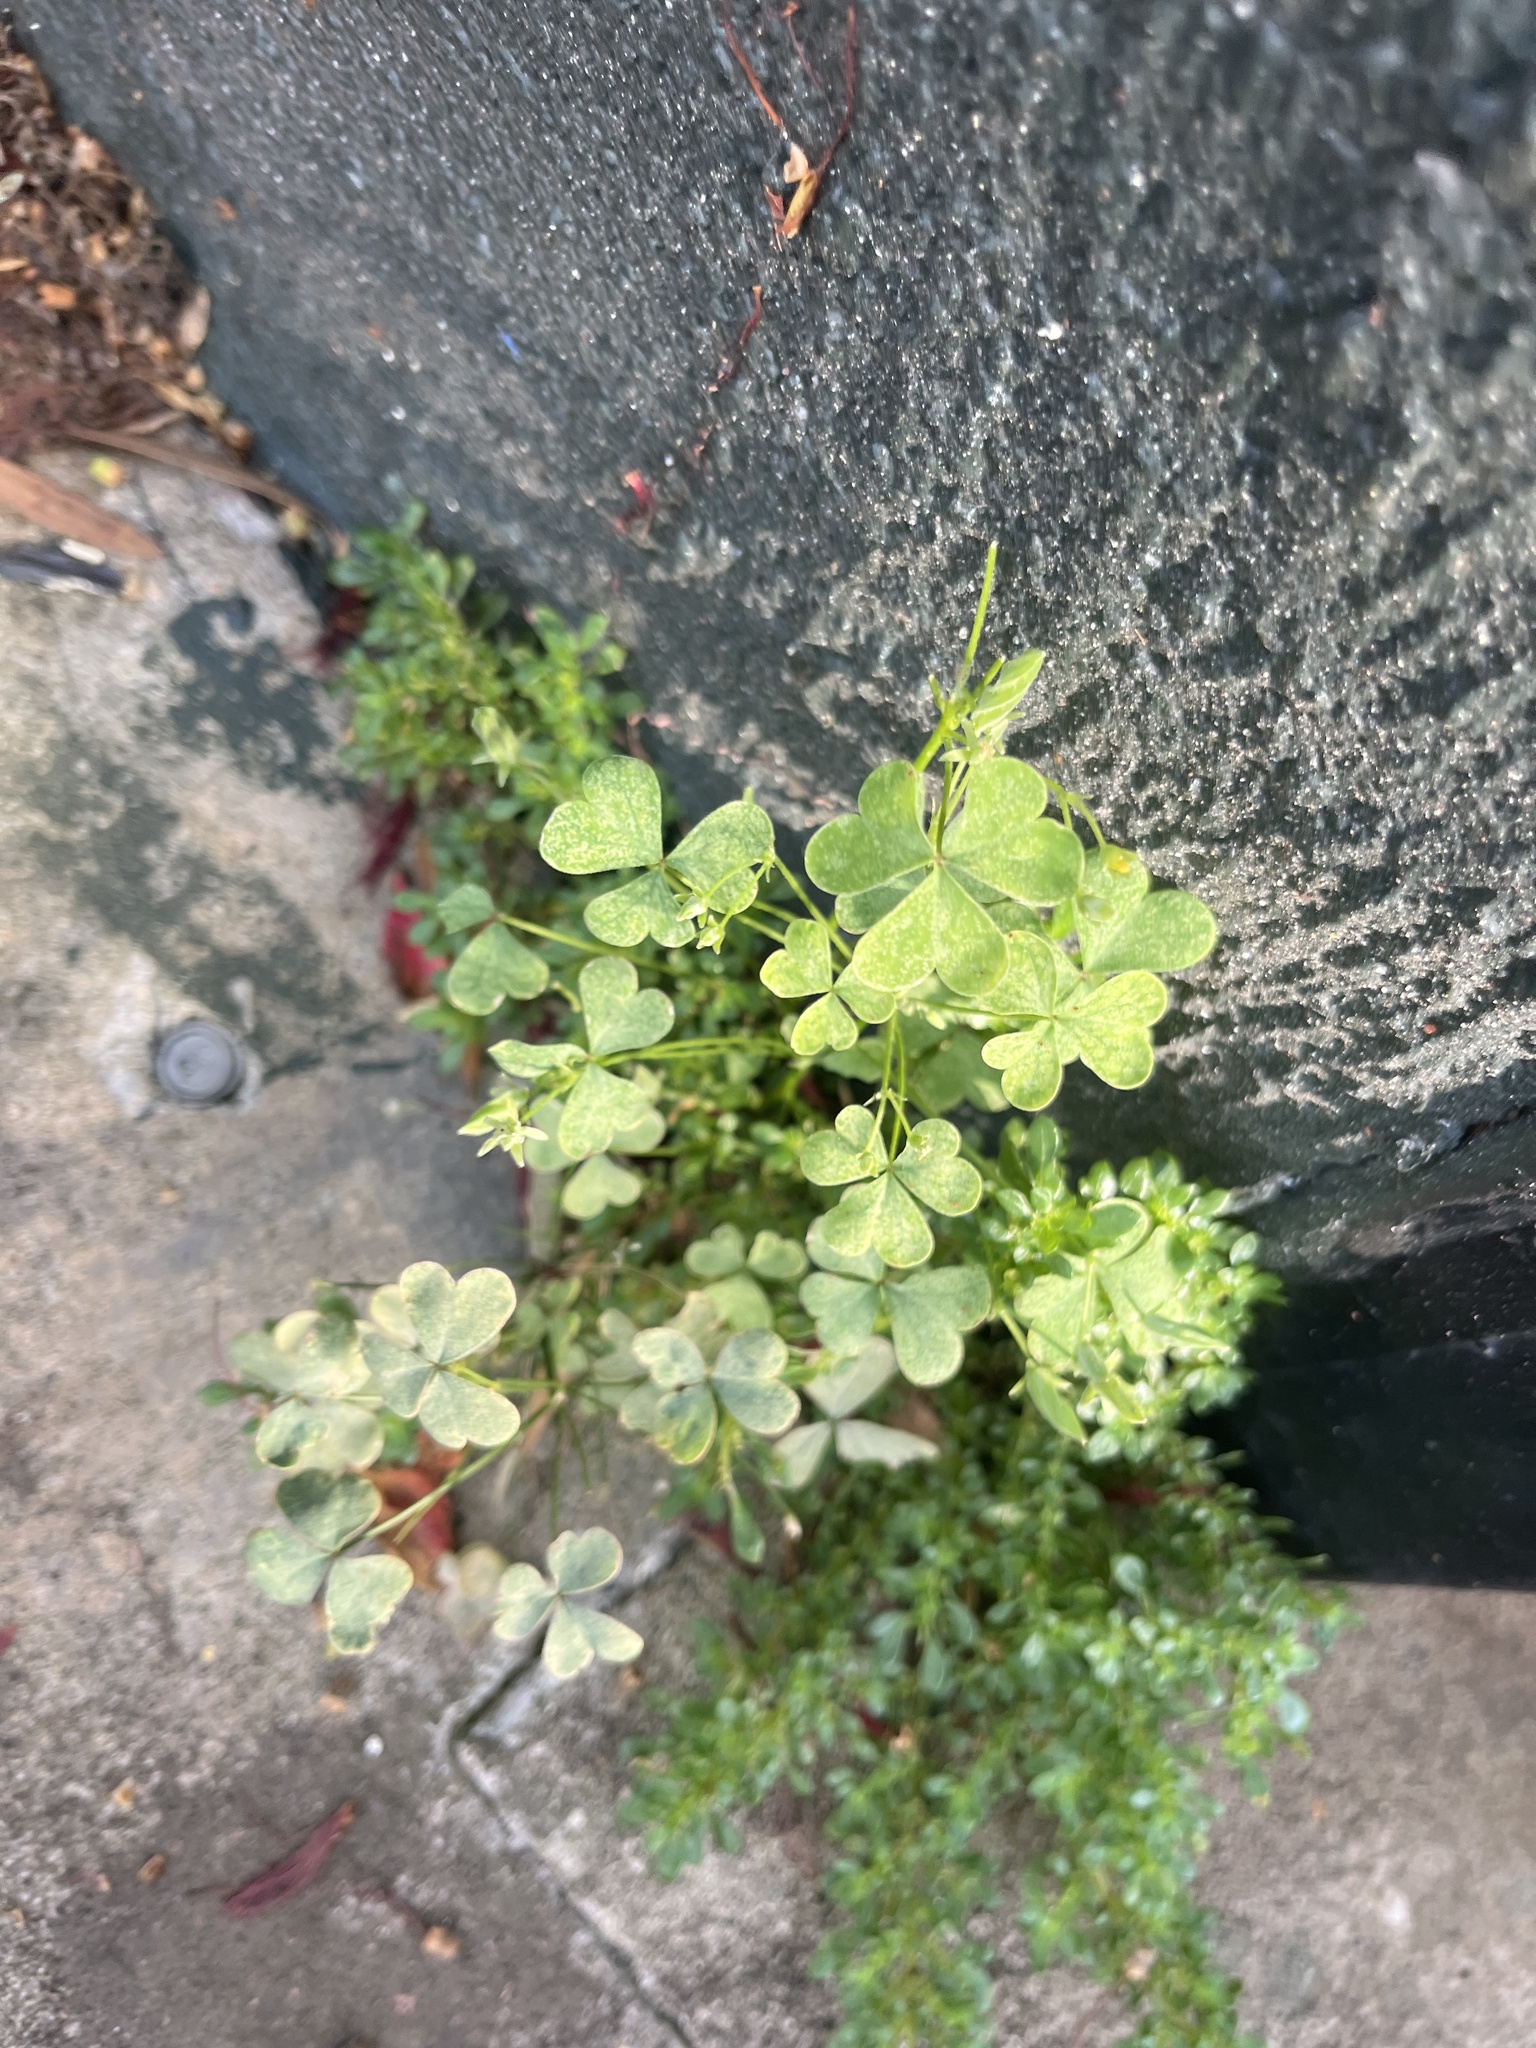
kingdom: Plantae
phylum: Tracheophyta
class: Magnoliopsida
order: Oxalidales
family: Oxalidaceae
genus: Oxalis
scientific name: Oxalis dillenii
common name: Sussex yellow-sorrel
